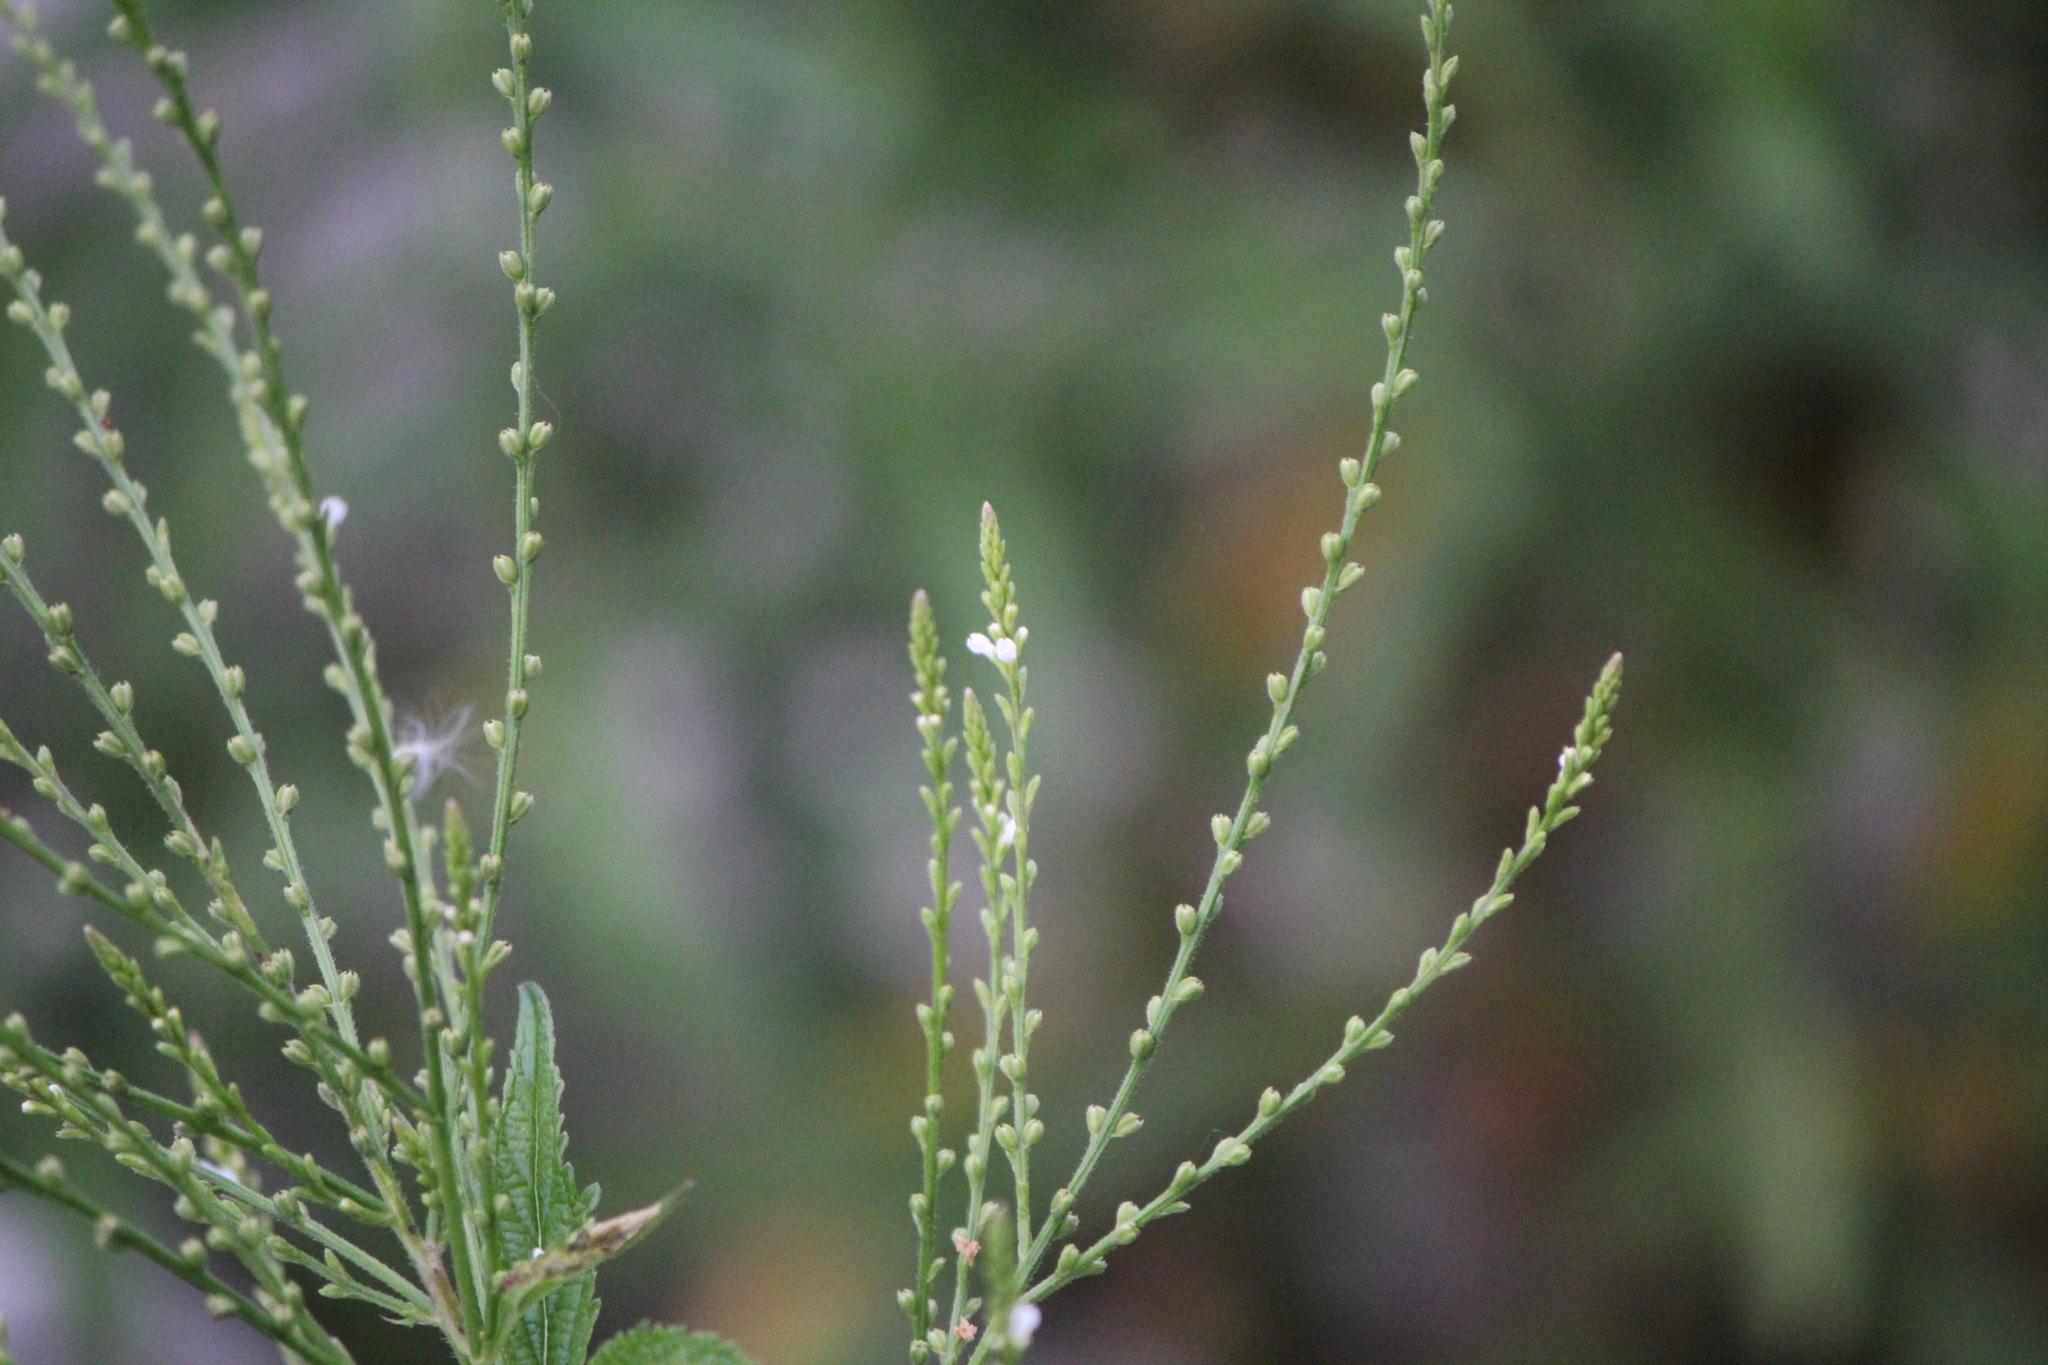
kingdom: Plantae
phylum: Tracheophyta
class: Magnoliopsida
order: Lamiales
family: Verbenaceae
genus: Verbena
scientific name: Verbena urticifolia
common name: Nettle-leaved vervain
